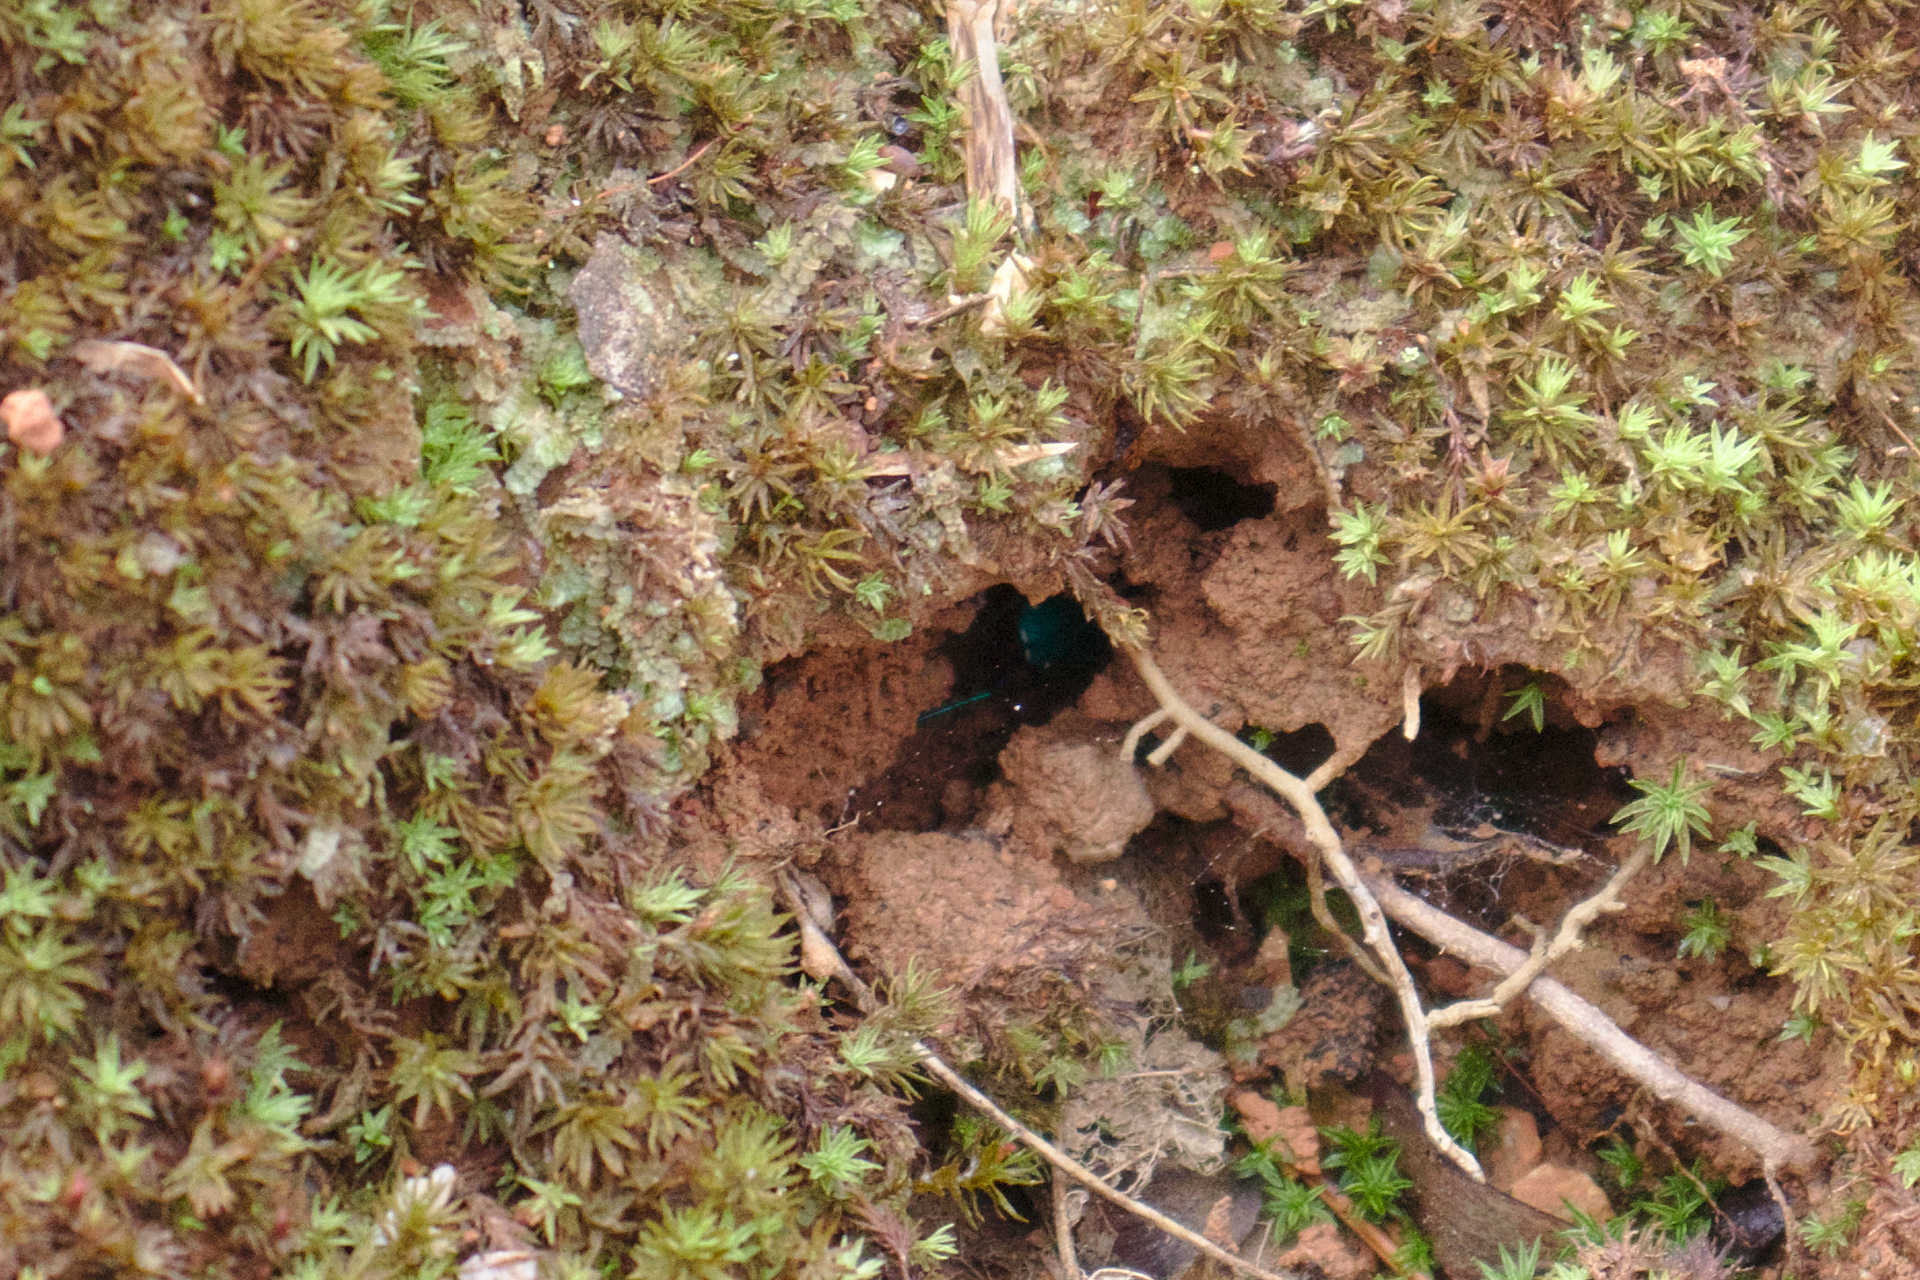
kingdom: Animalia
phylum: Arthropoda
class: Insecta
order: Coleoptera
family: Carabidae
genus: Cicindela
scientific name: Cicindela sexguttata
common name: Six-spotted tiger beetle
